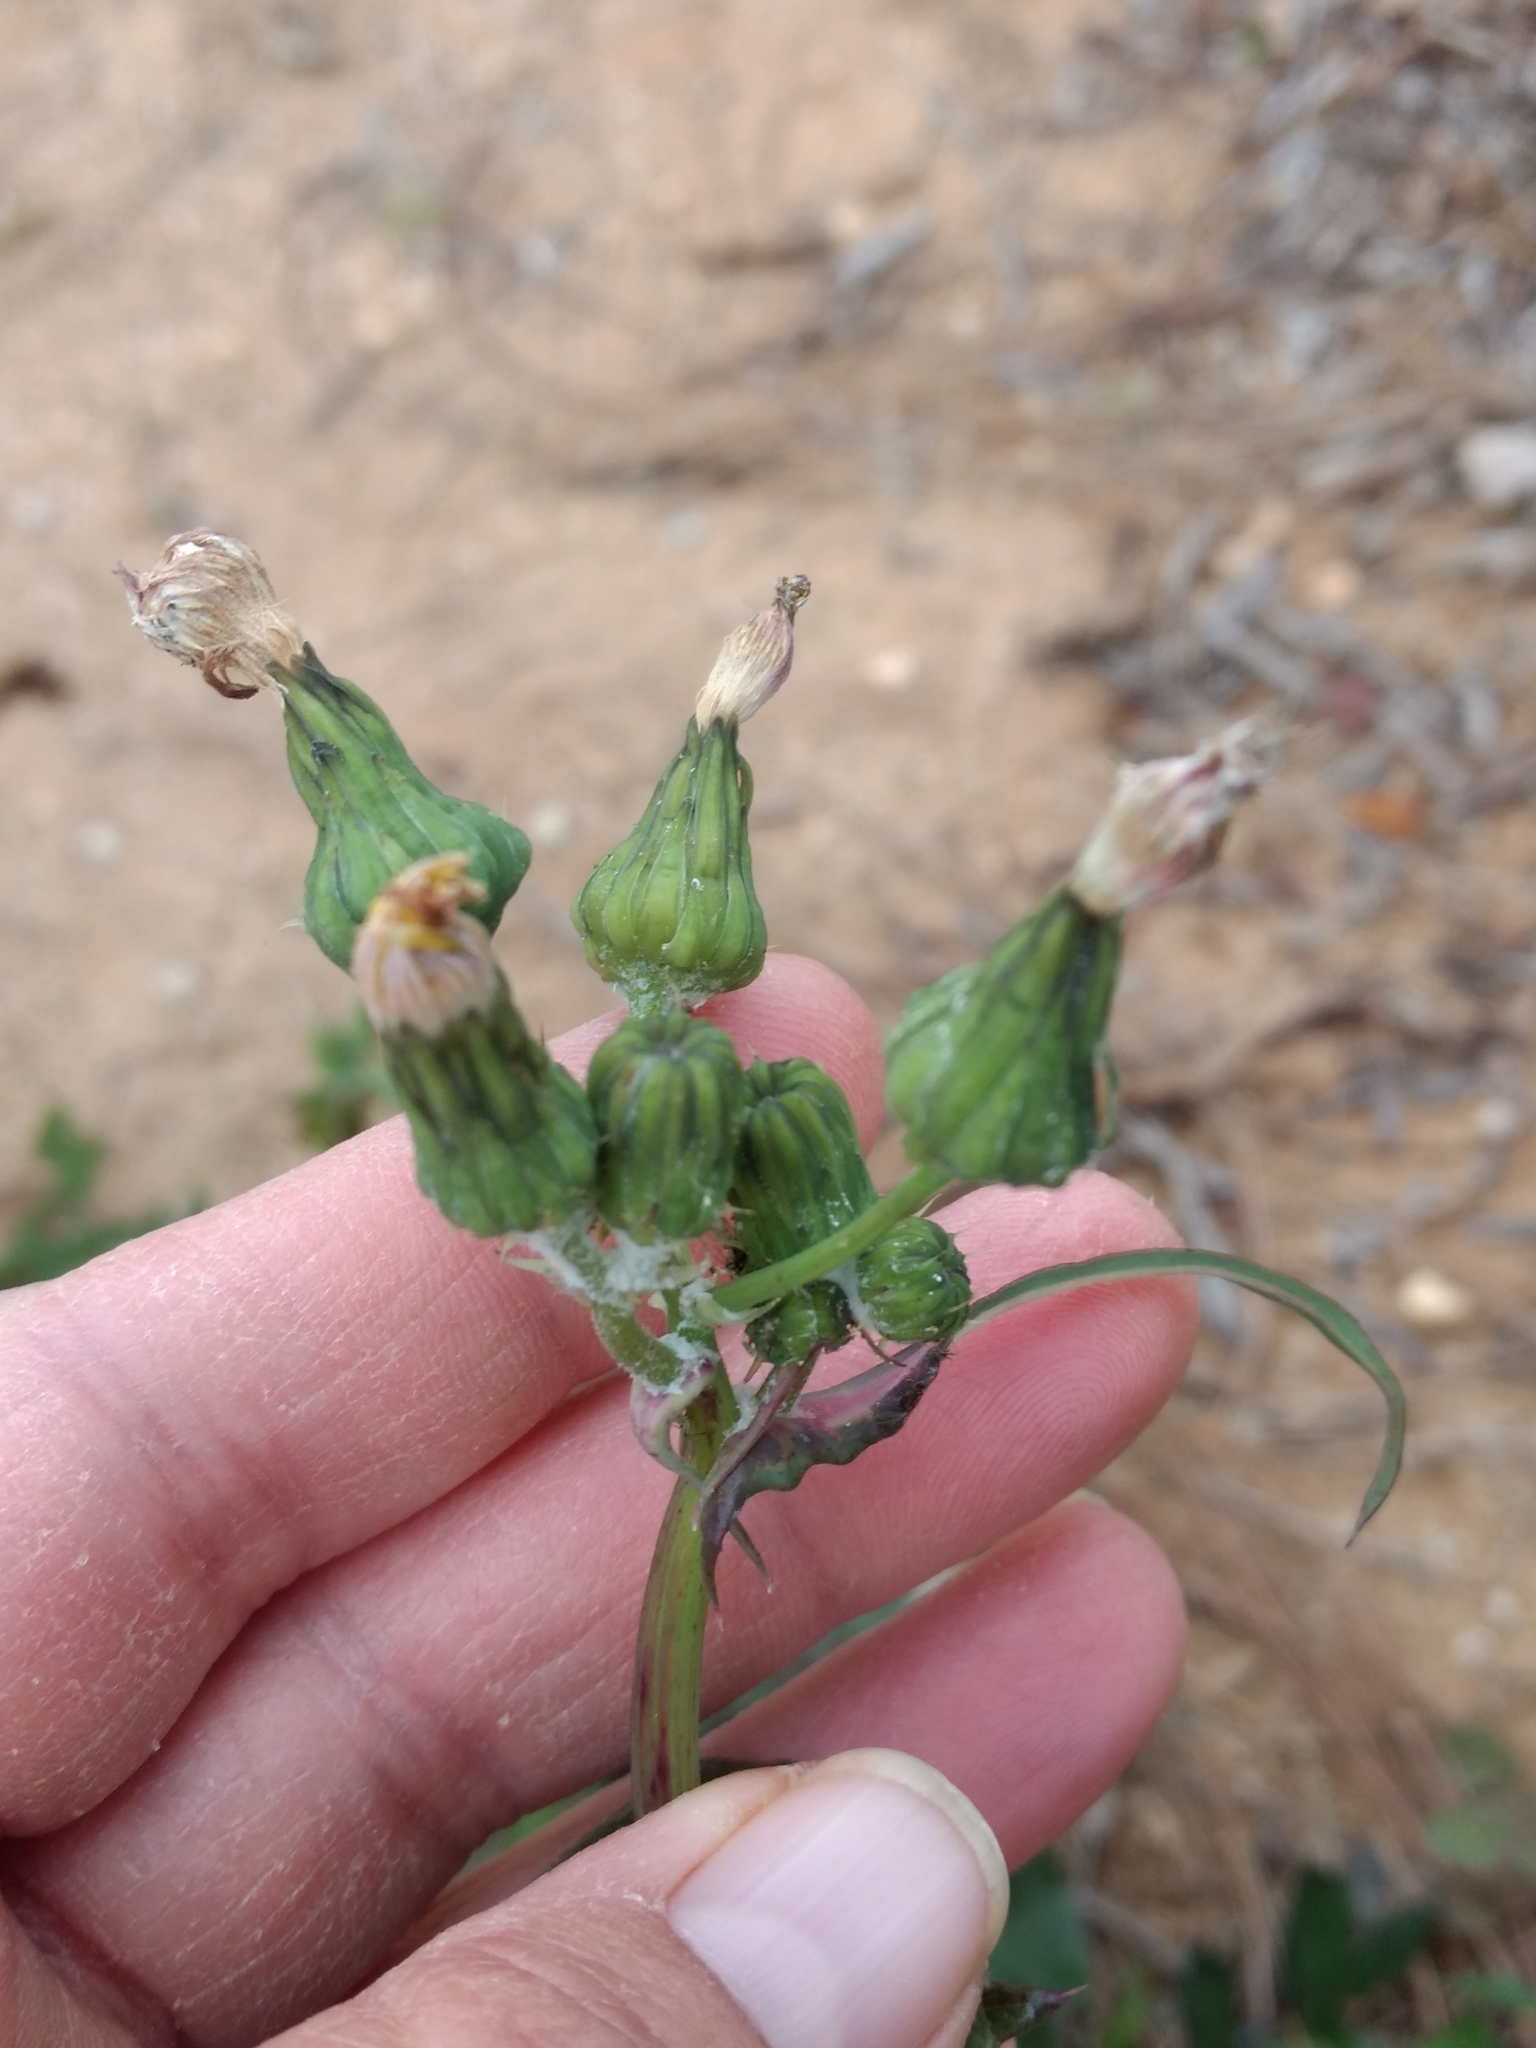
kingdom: Plantae
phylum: Tracheophyta
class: Magnoliopsida
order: Asterales
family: Asteraceae
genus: Sonchus
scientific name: Sonchus oleraceus
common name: Common sowthistle
